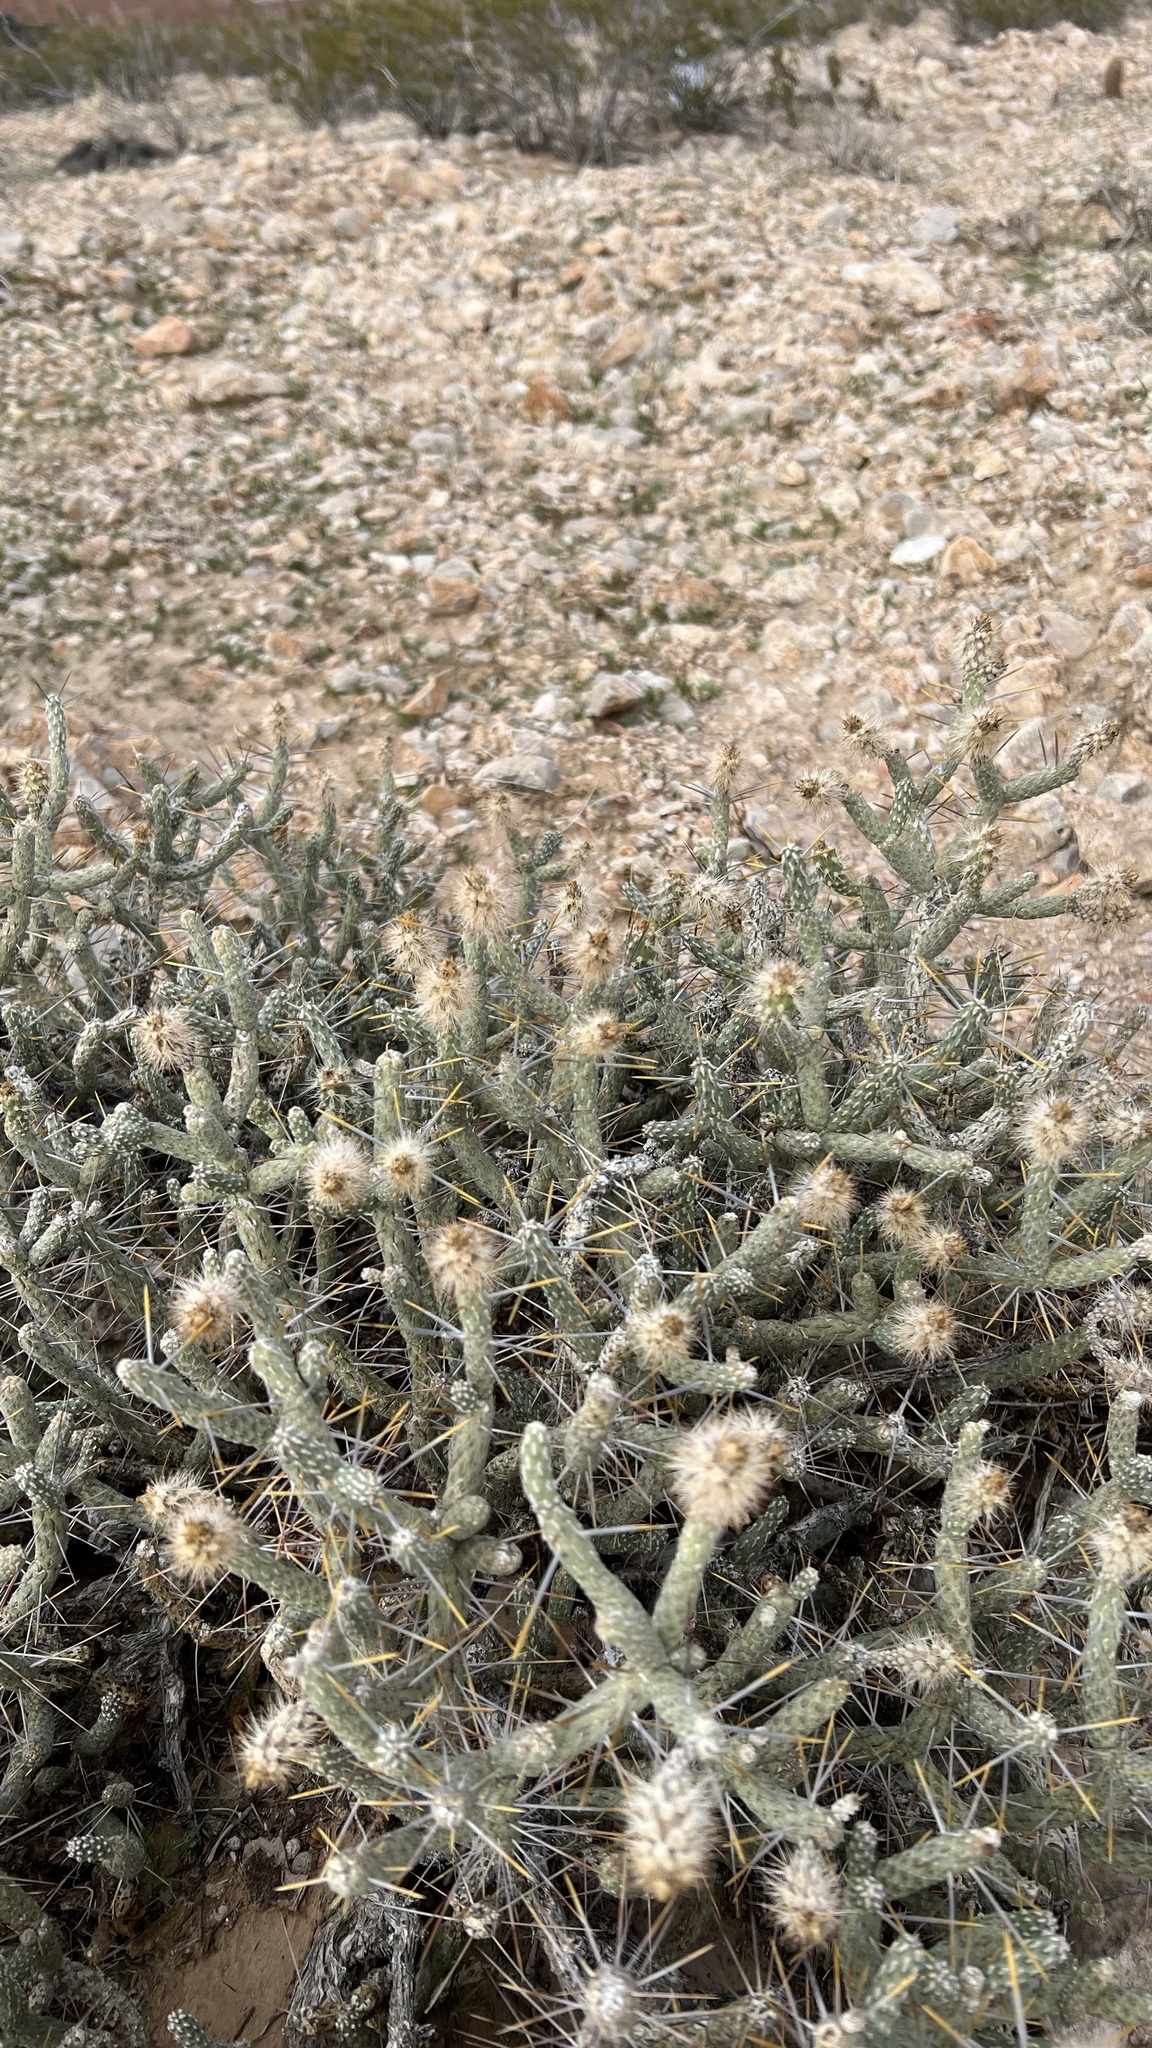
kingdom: Plantae
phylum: Tracheophyta
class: Magnoliopsida
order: Caryophyllales
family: Cactaceae
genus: Cylindropuntia
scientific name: Cylindropuntia ramosissima
